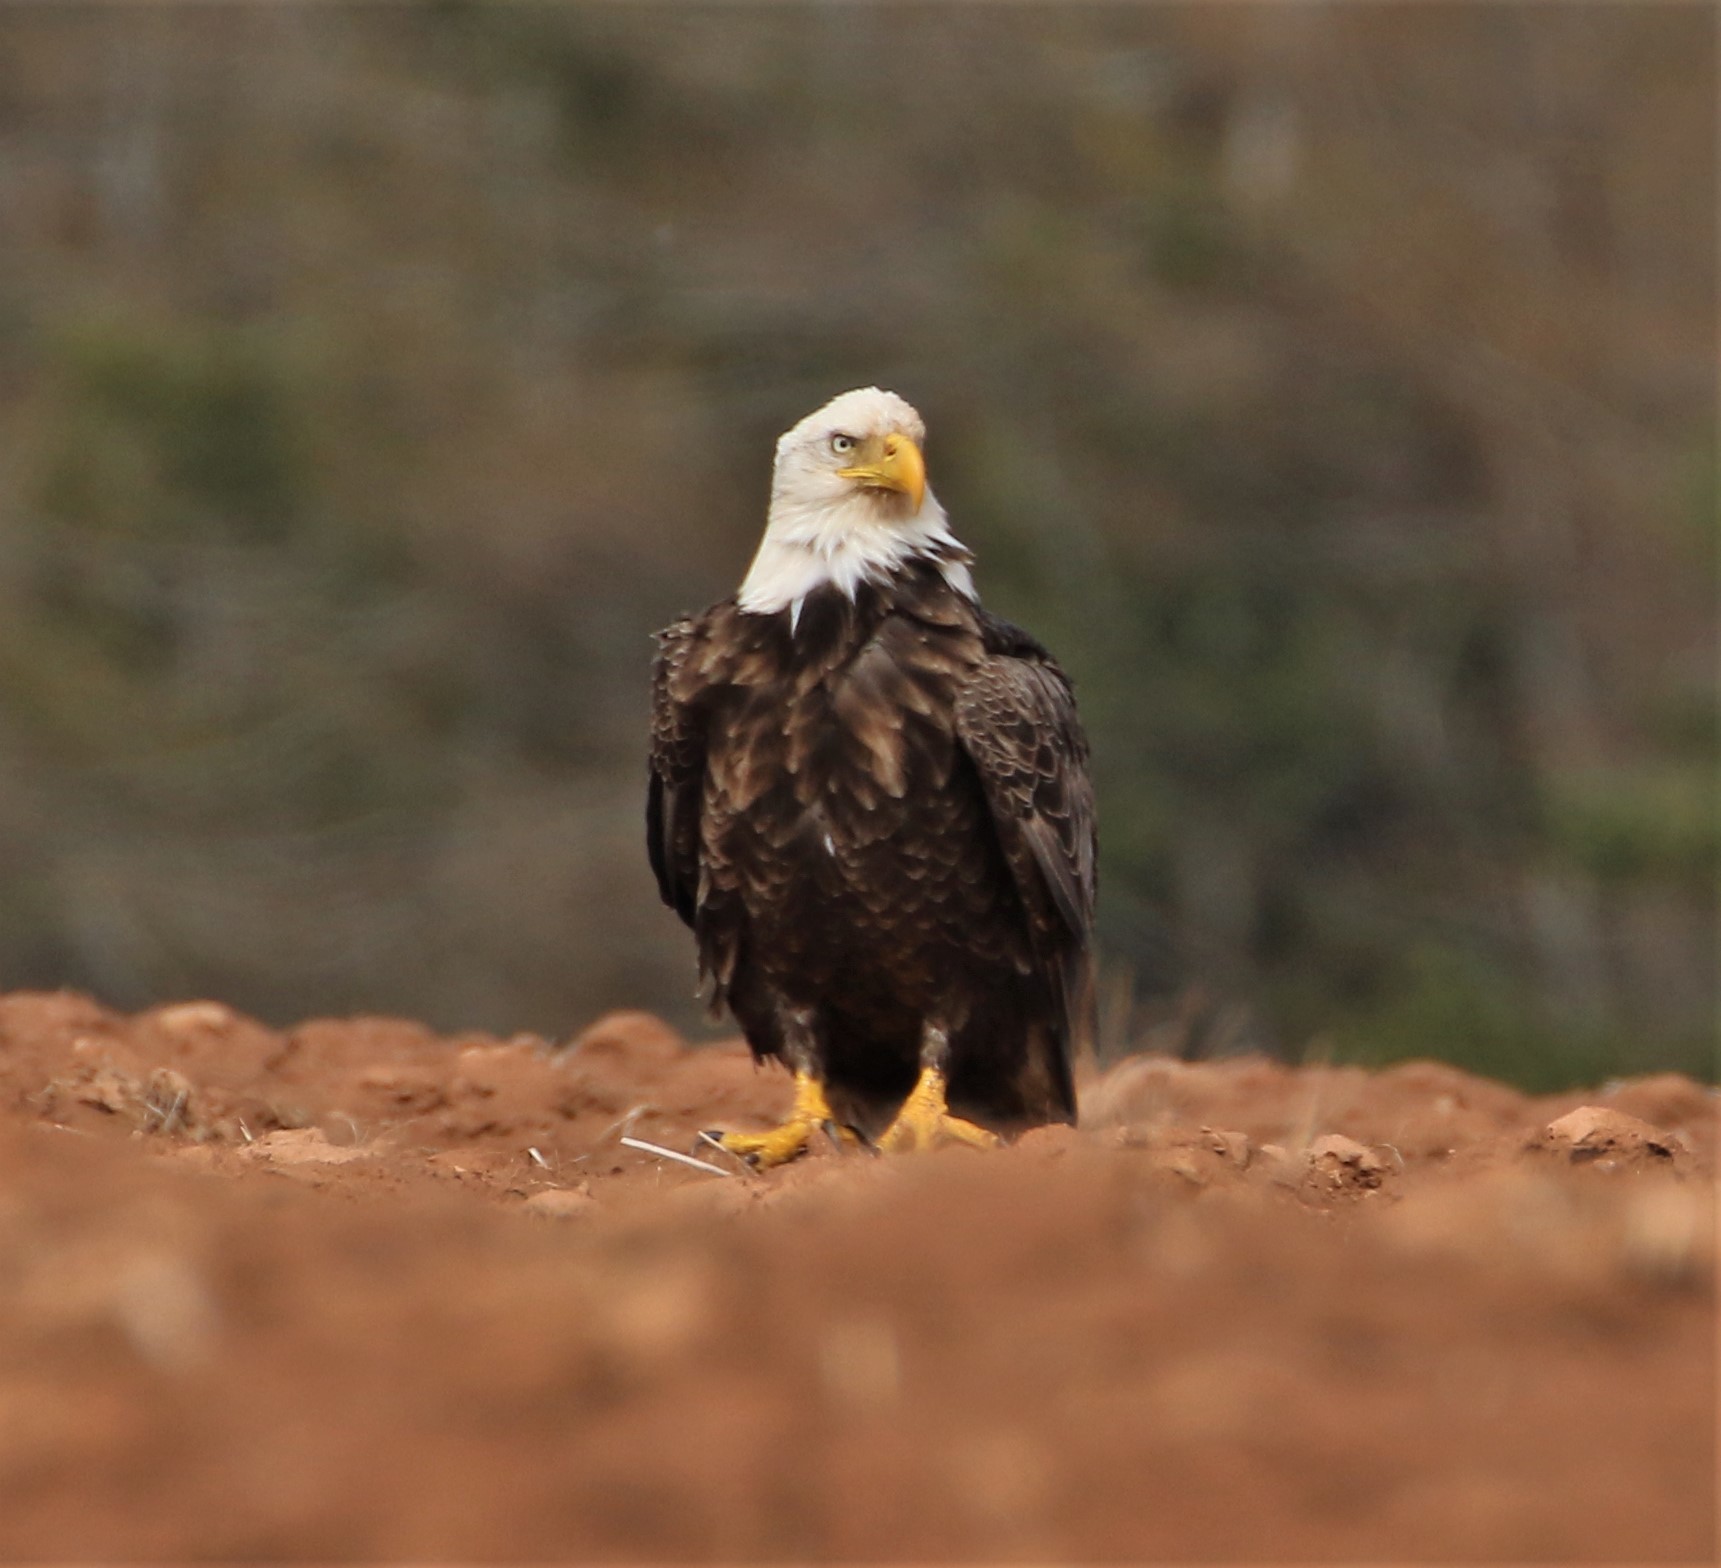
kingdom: Animalia
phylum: Chordata
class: Aves
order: Accipitriformes
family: Accipitridae
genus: Haliaeetus
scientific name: Haliaeetus leucocephalus
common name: Bald eagle
